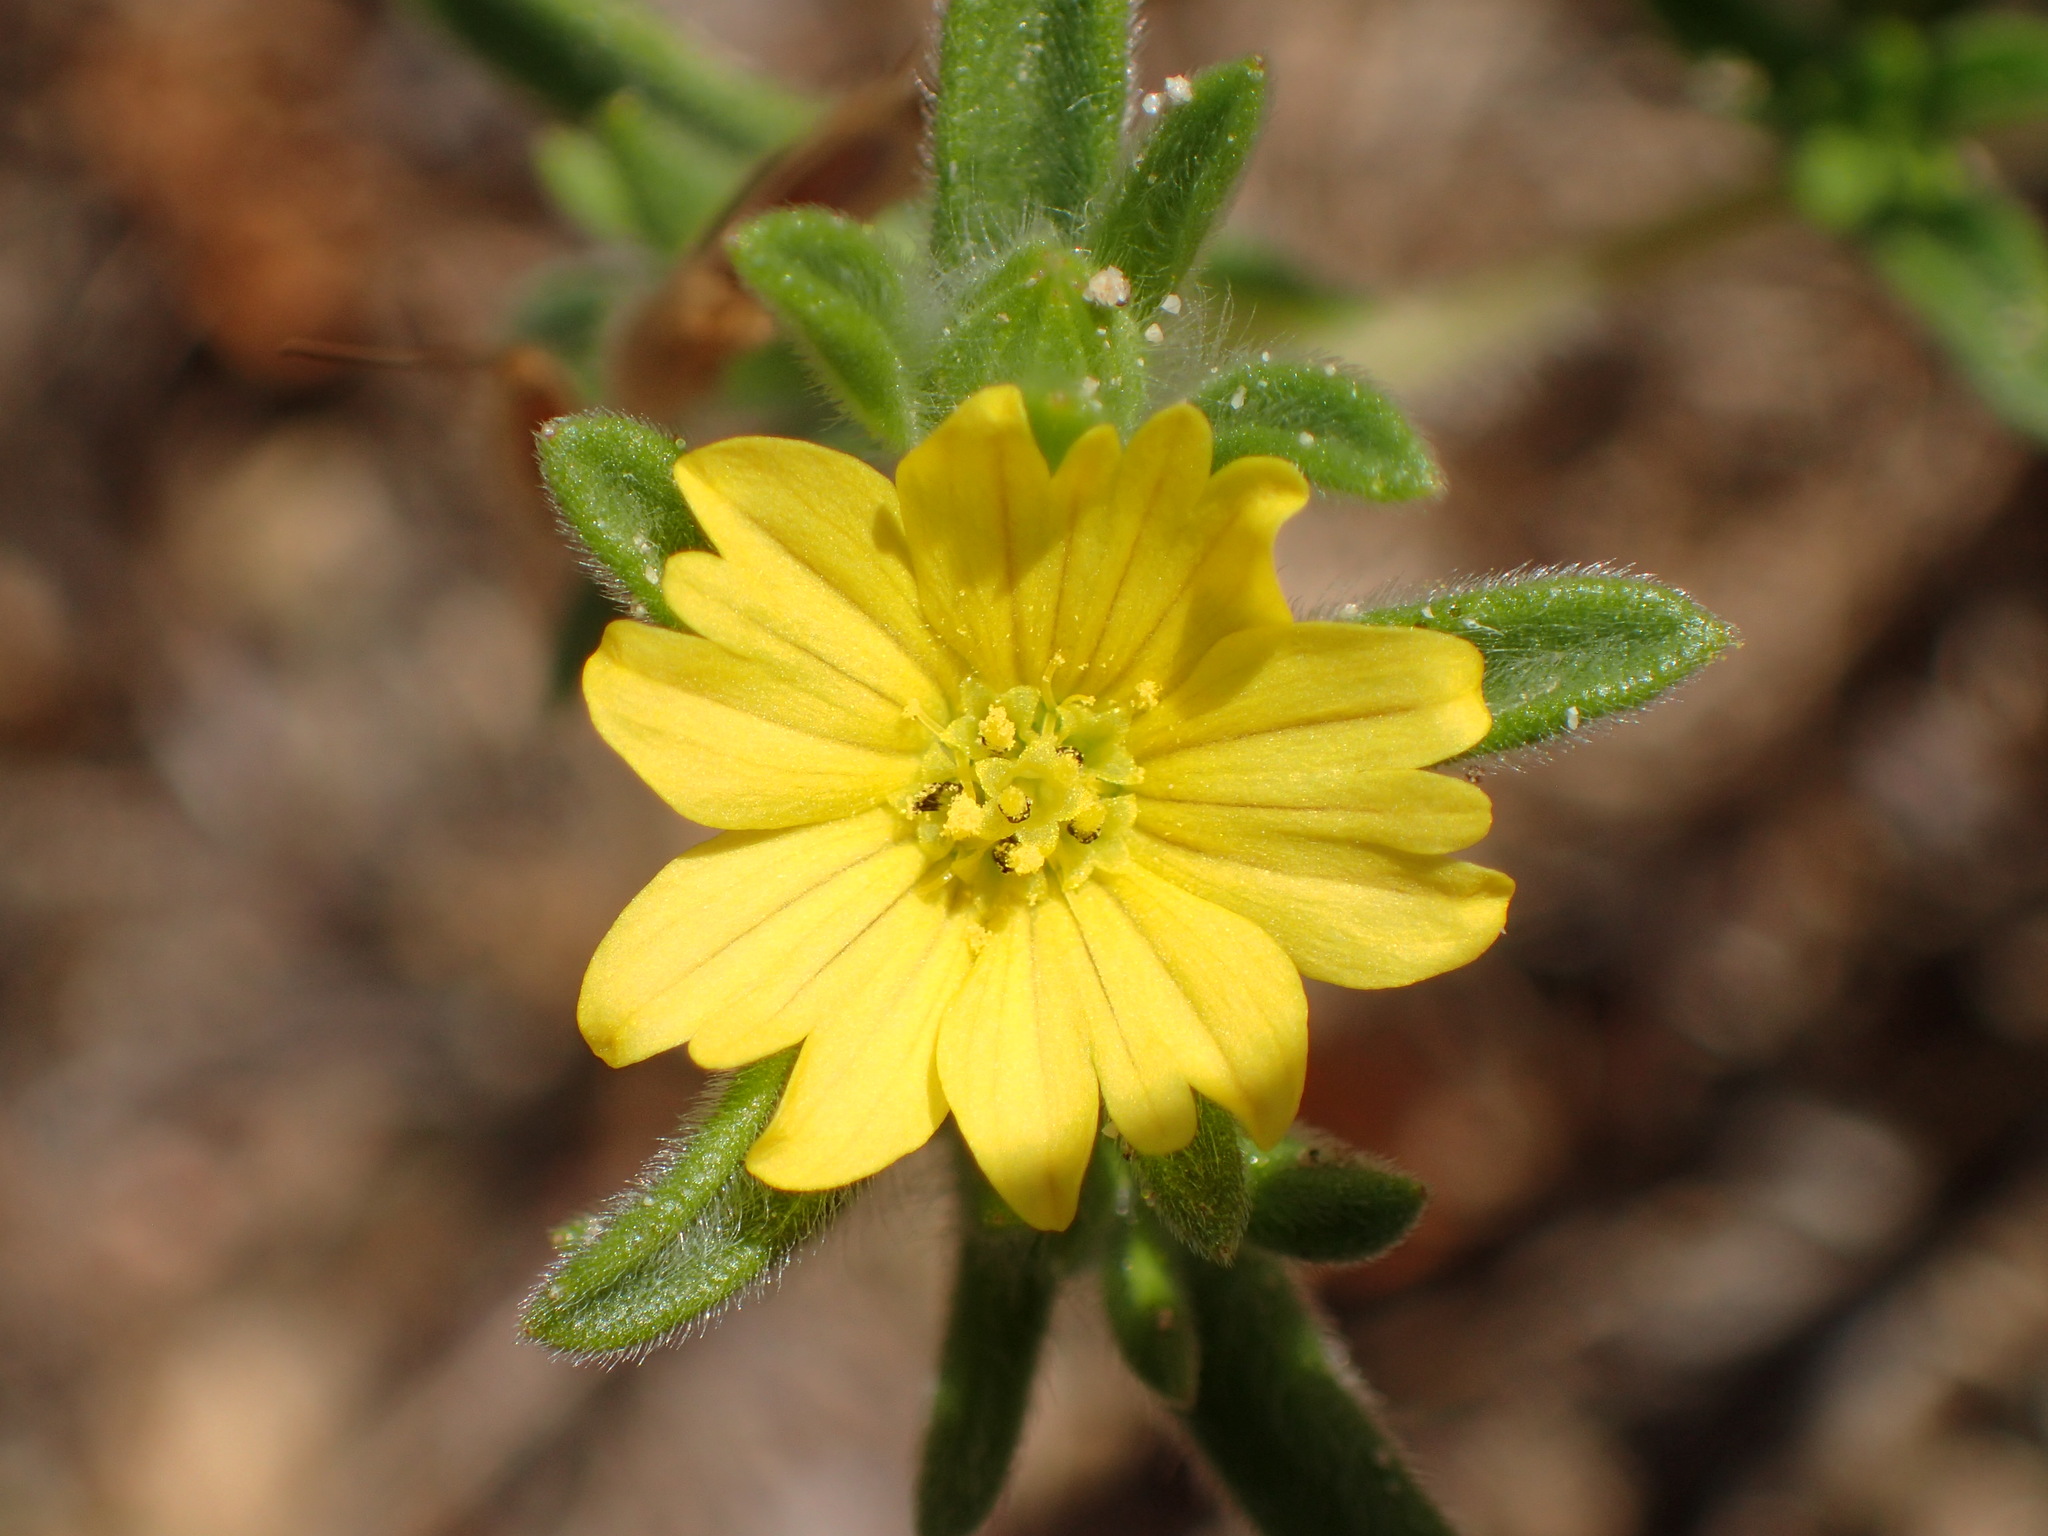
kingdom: Plantae
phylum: Tracheophyta
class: Magnoliopsida
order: Asterales
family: Asteraceae
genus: Lagophylla
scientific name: Lagophylla ramosissima
